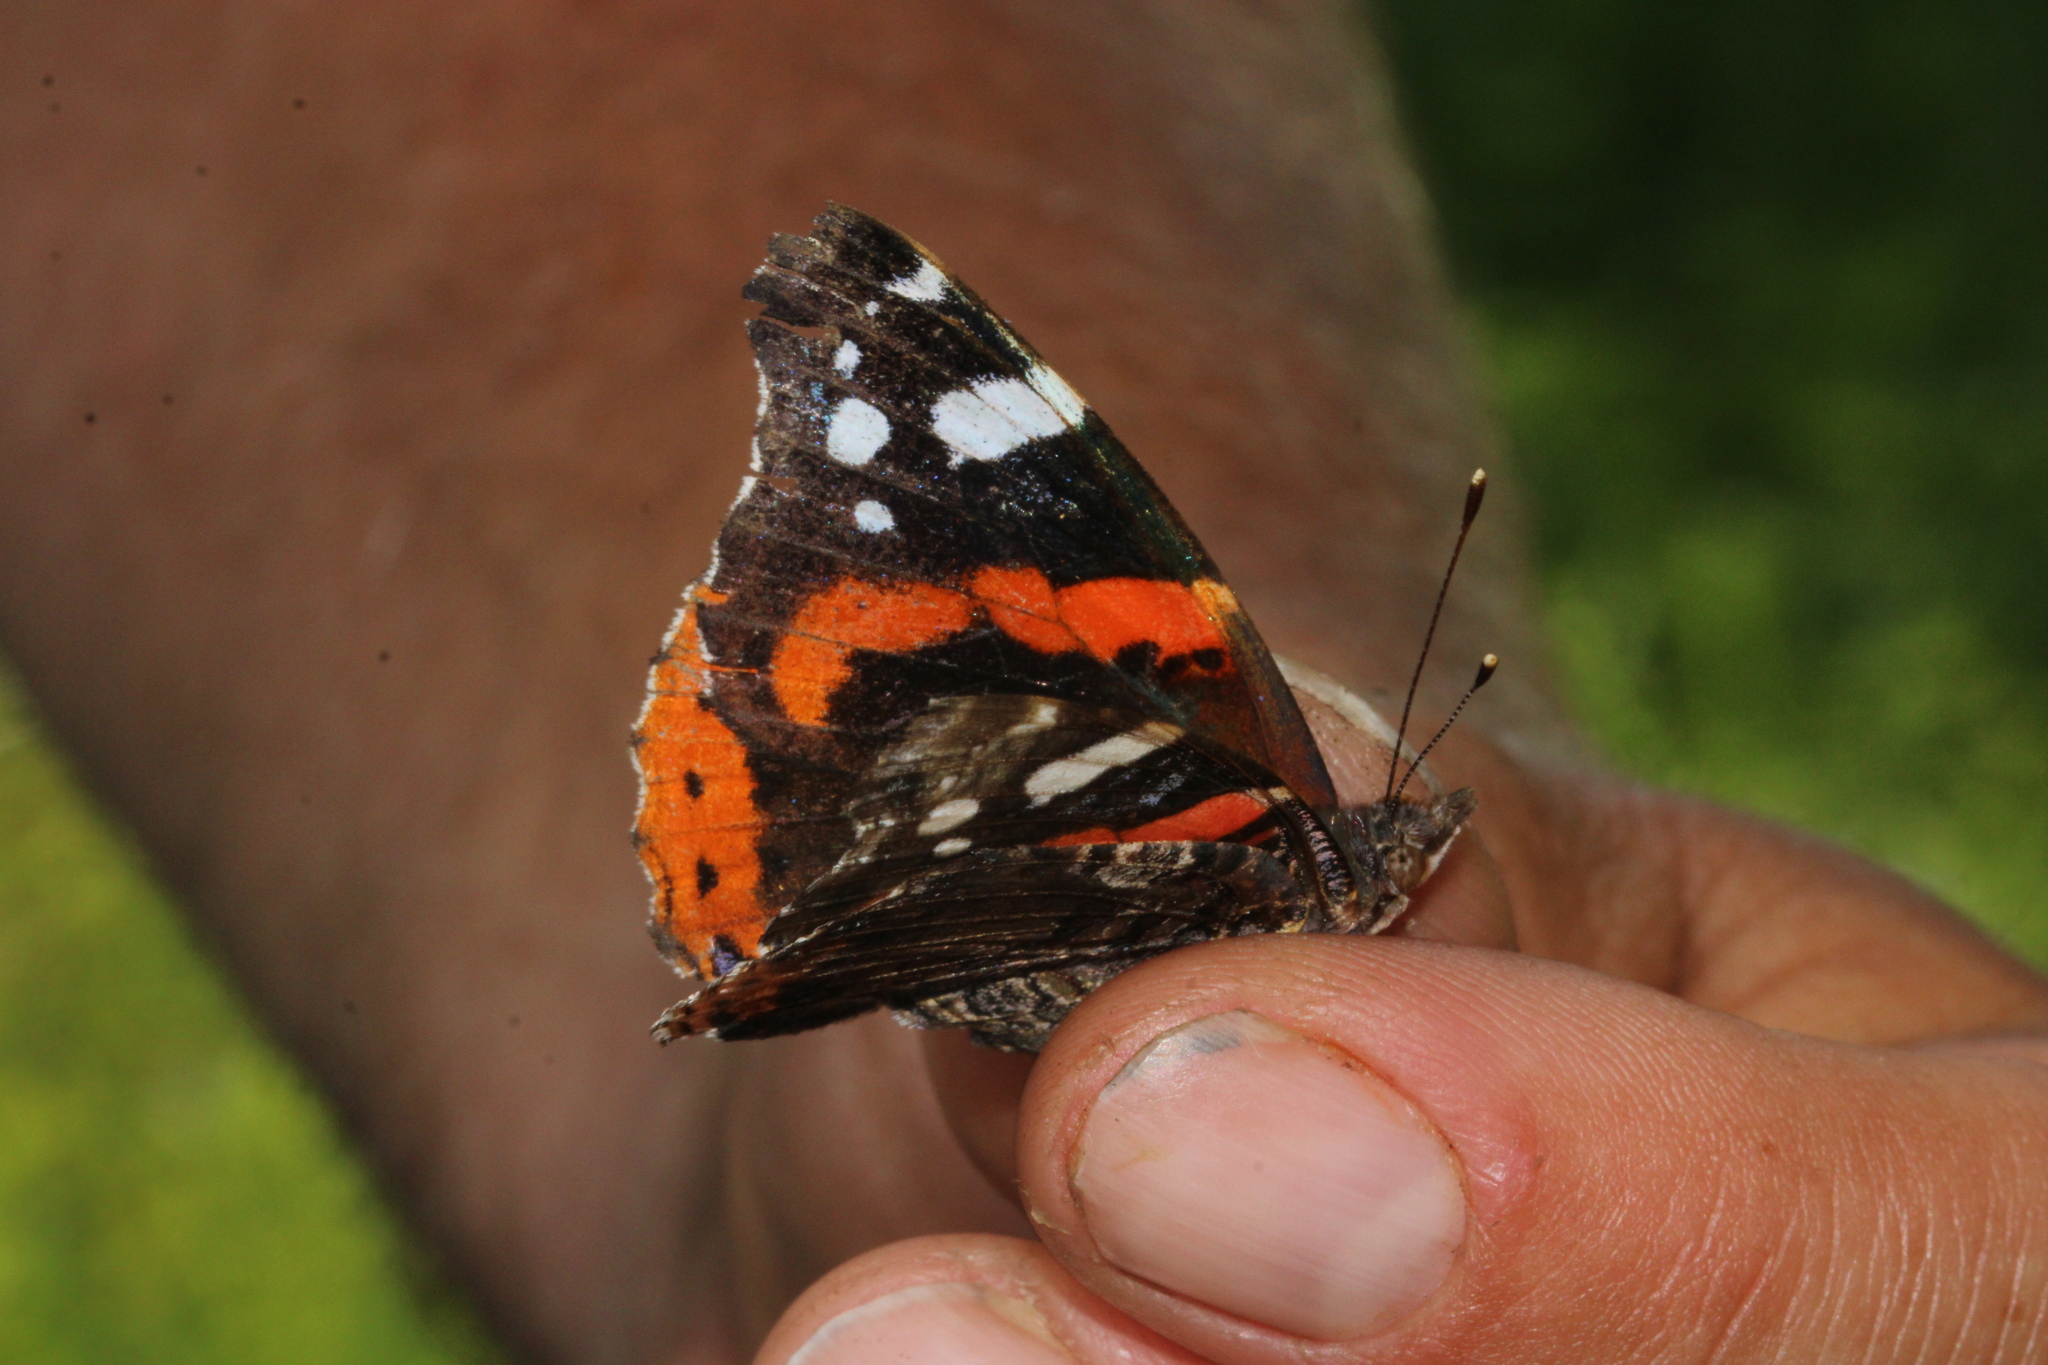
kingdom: Animalia
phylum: Arthropoda
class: Insecta
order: Lepidoptera
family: Nymphalidae
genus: Vanessa
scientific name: Vanessa atalanta
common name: Red admiral
